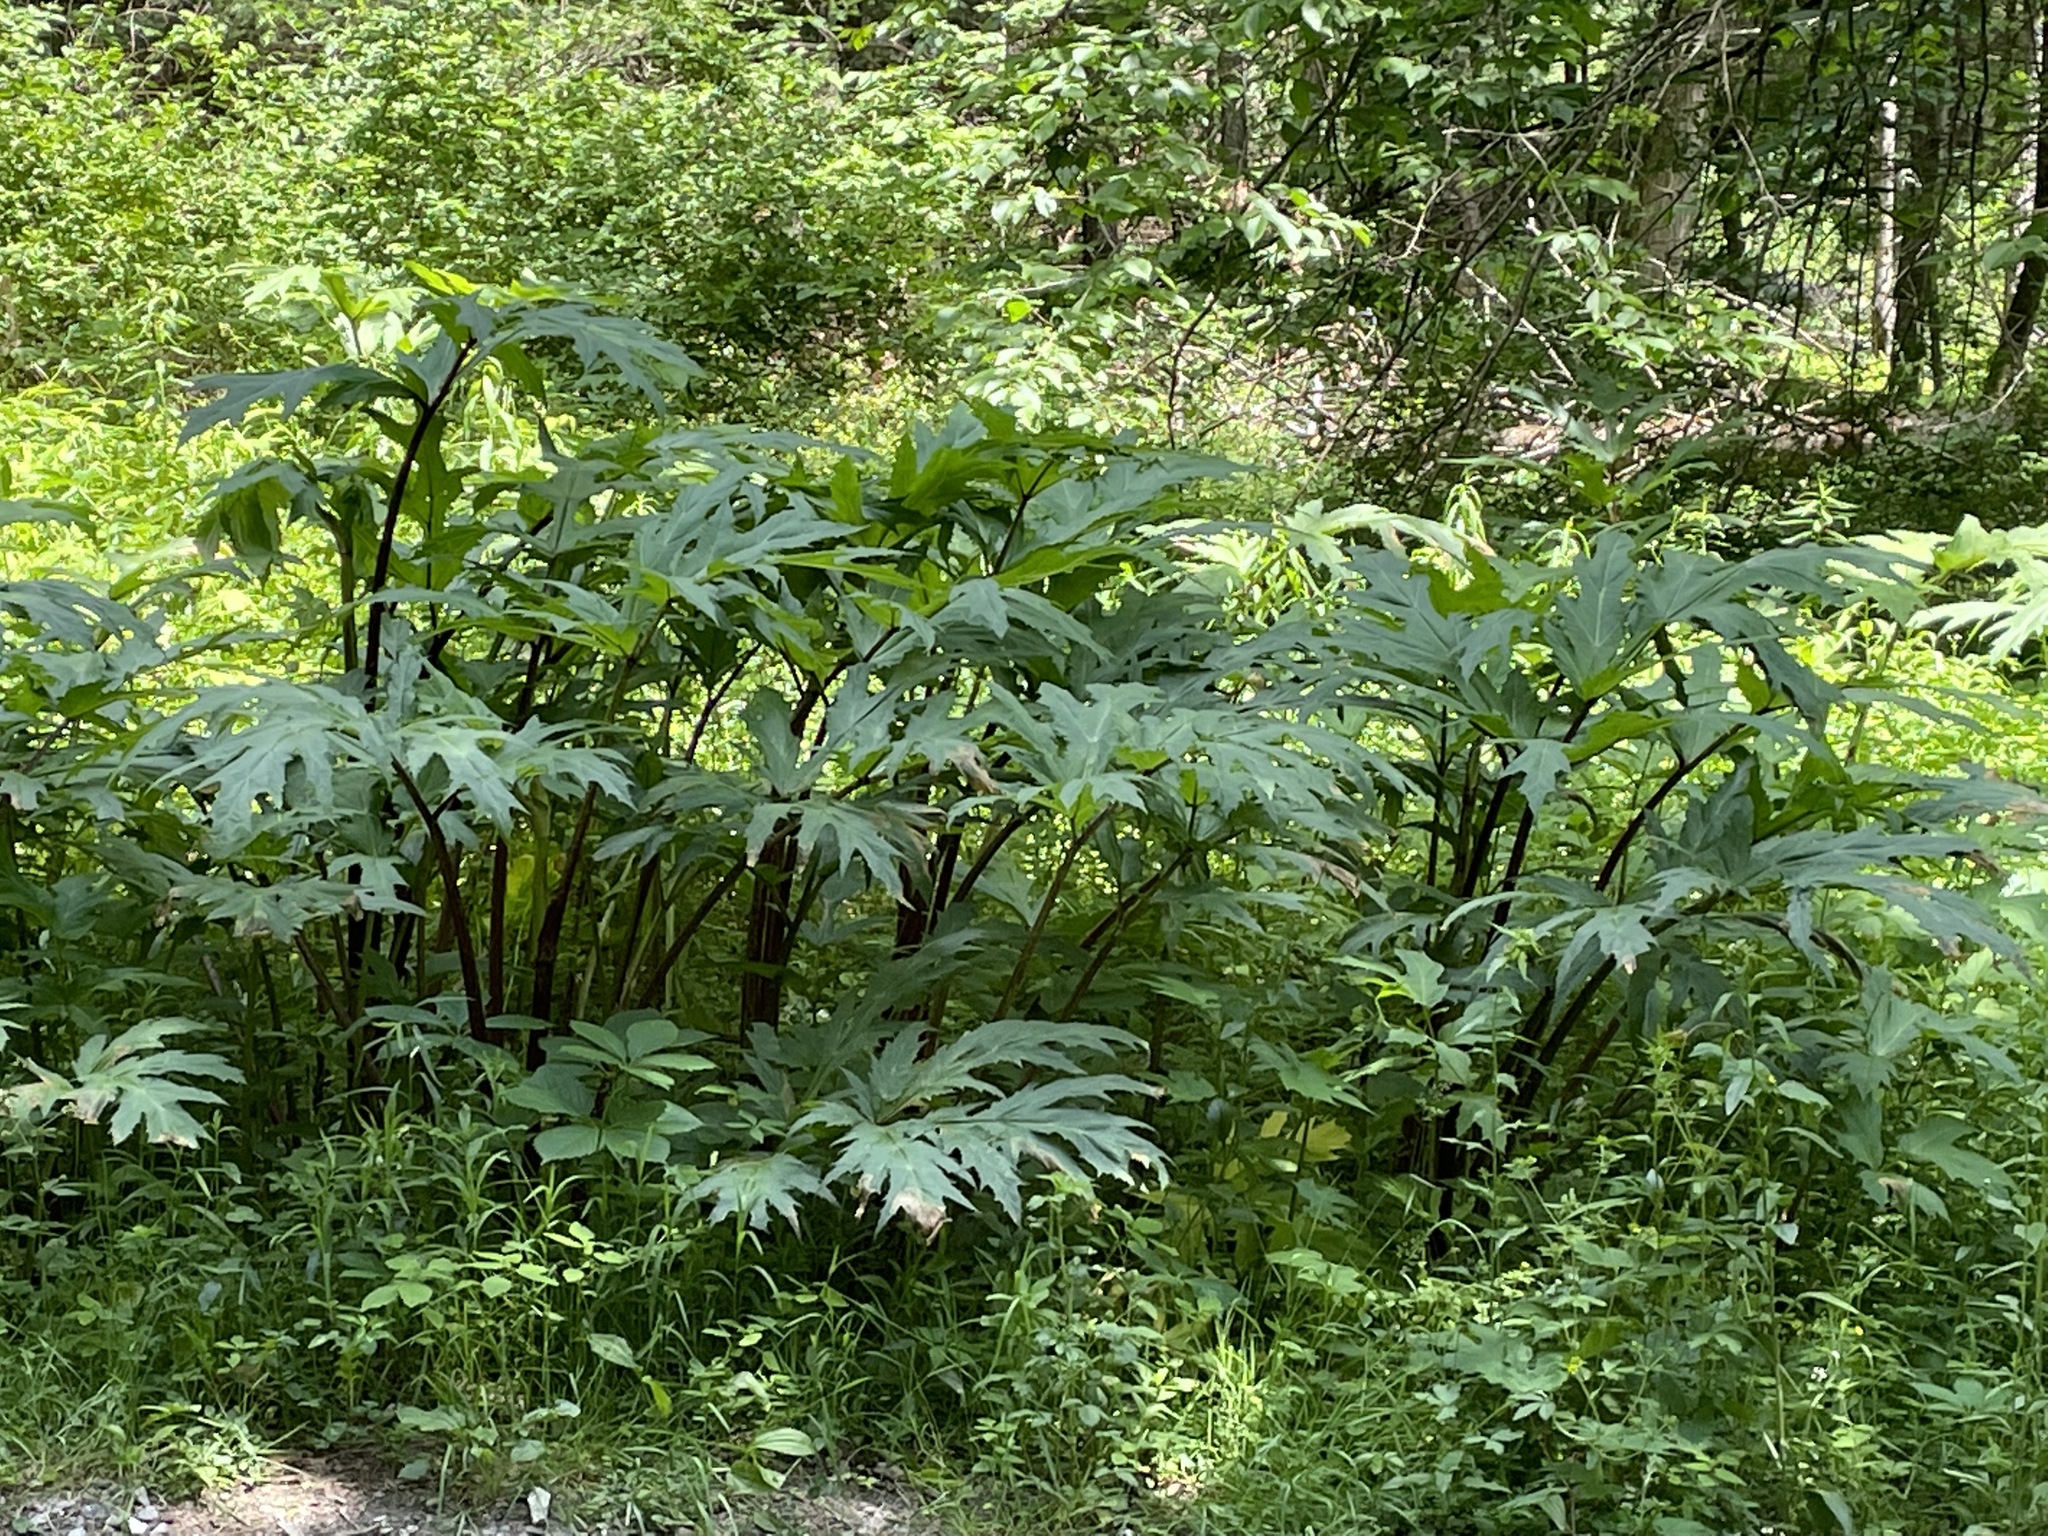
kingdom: Plantae
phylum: Tracheophyta
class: Magnoliopsida
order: Apiales
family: Apiaceae
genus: Heracleum
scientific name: Heracleum mantegazzianum
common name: Giant hogweed
